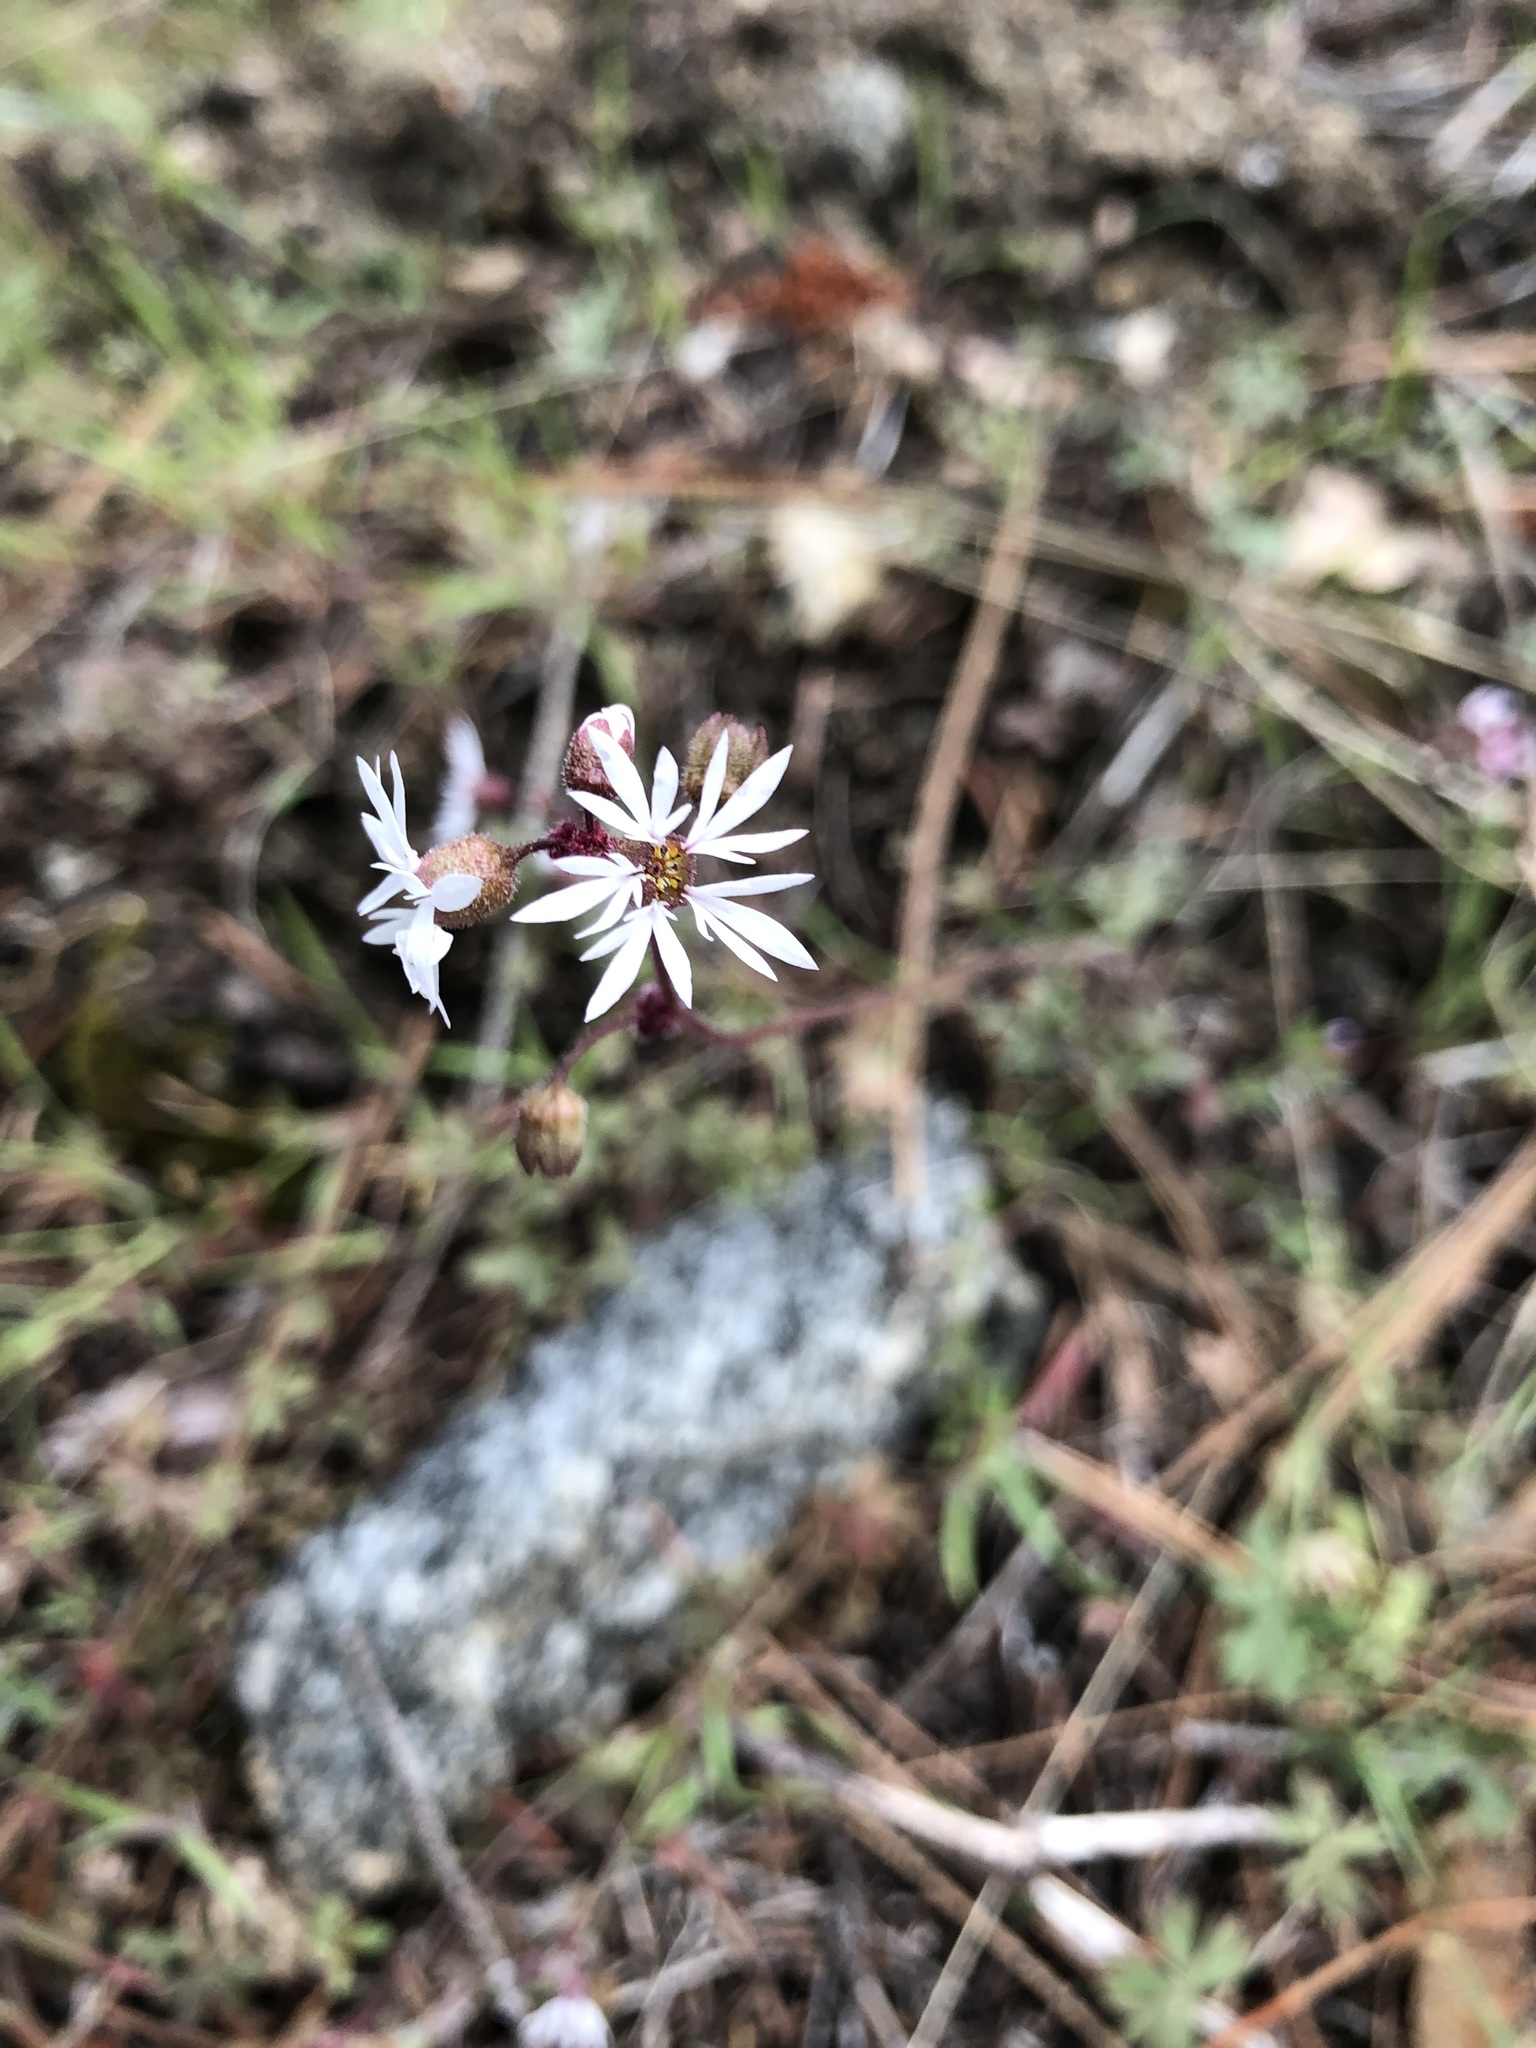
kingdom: Plantae
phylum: Tracheophyta
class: Magnoliopsida
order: Saxifragales
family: Saxifragaceae
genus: Lithophragma
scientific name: Lithophragma glabrum
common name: Bulbous prairie-star
